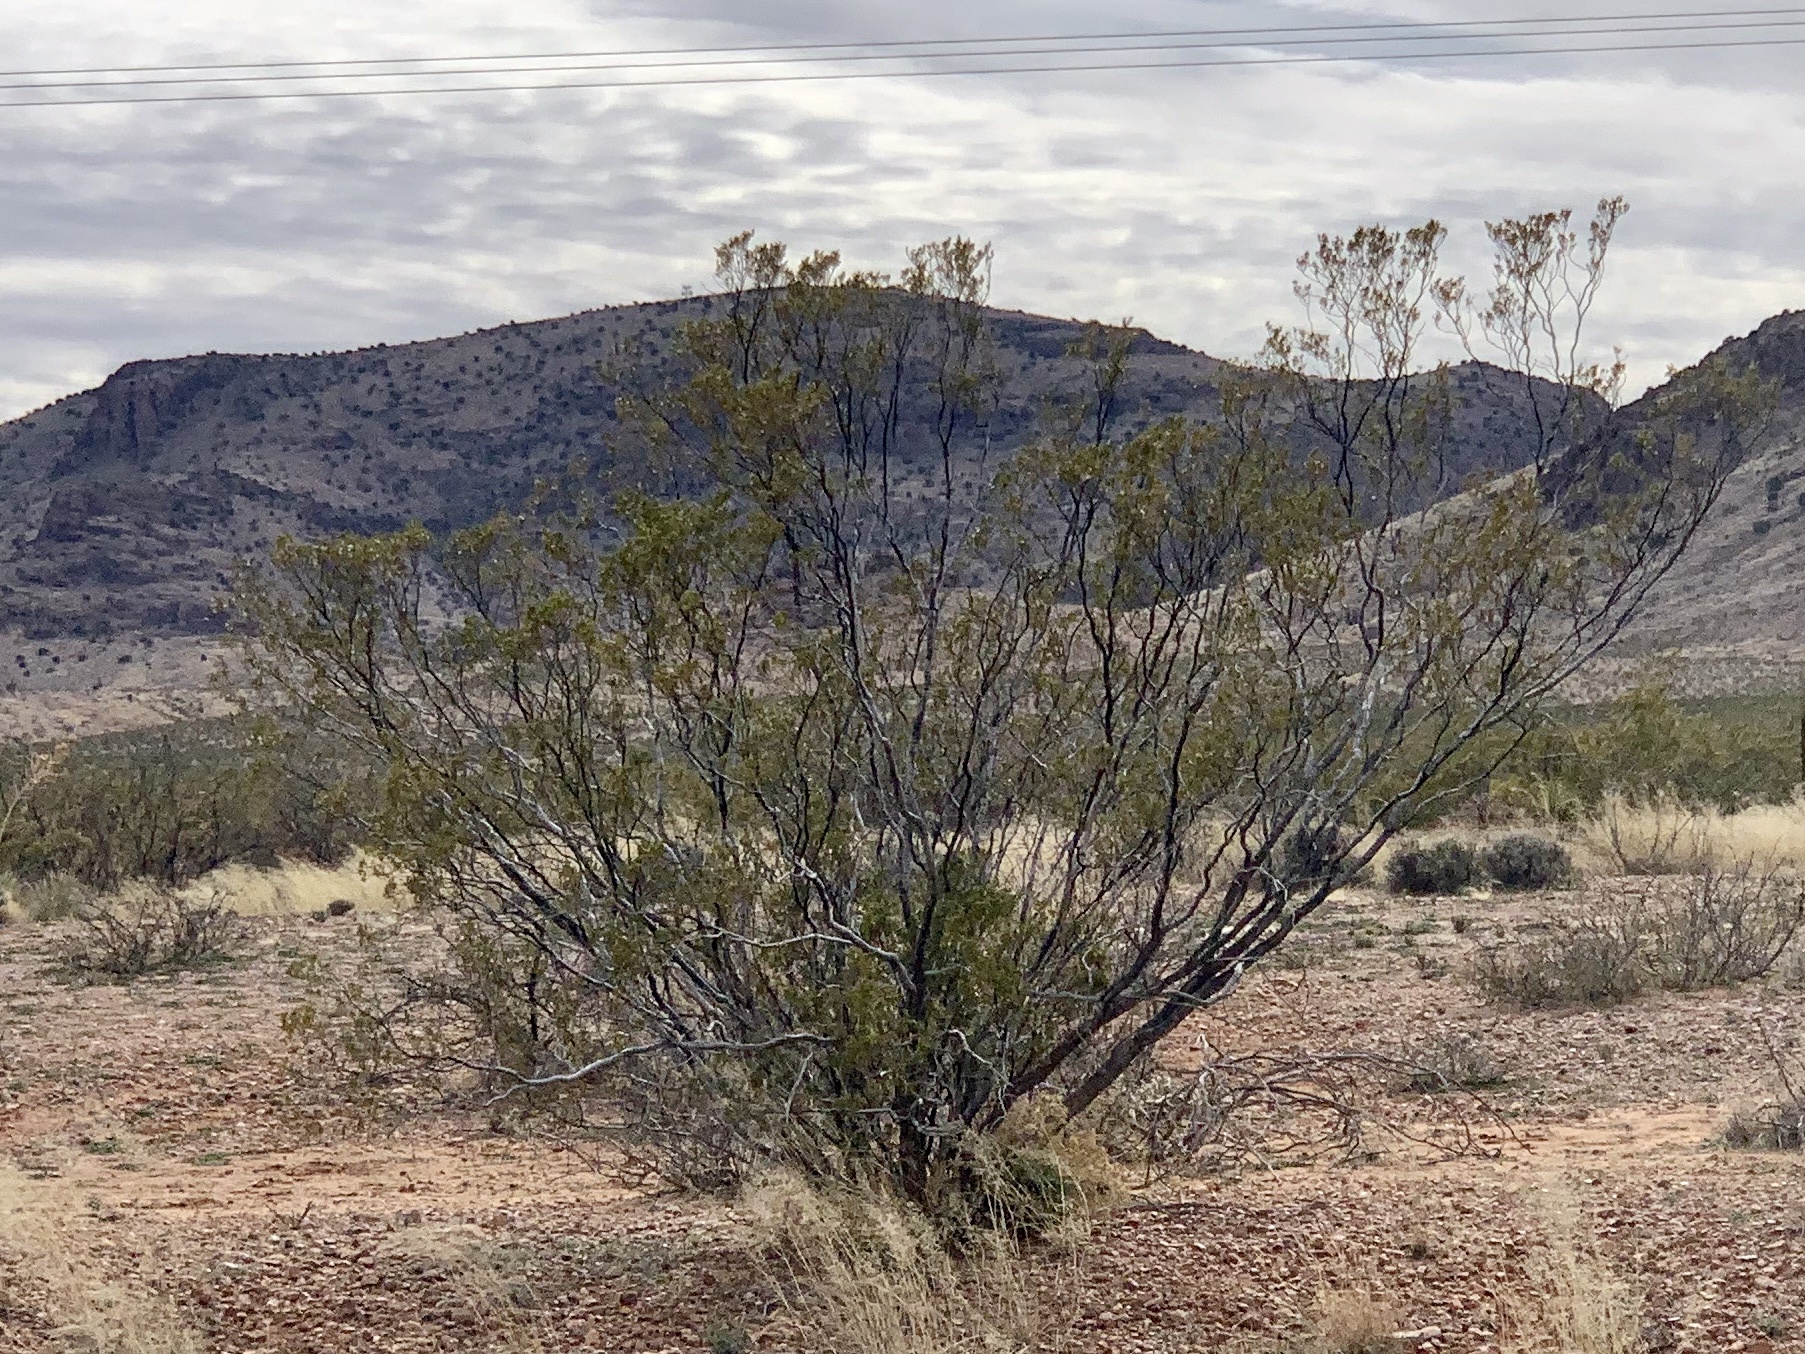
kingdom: Plantae
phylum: Tracheophyta
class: Magnoliopsida
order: Zygophyllales
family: Zygophyllaceae
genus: Larrea
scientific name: Larrea tridentata
